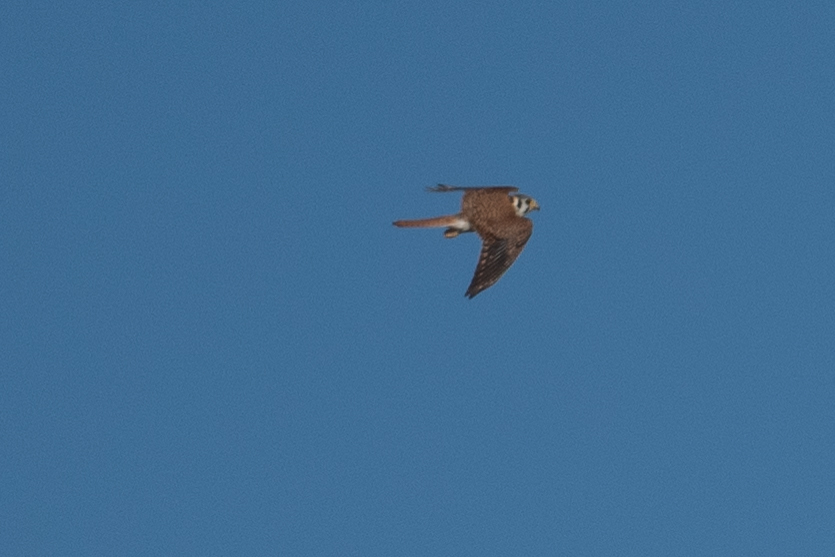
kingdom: Animalia
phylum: Chordata
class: Aves
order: Falconiformes
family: Falconidae
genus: Falco
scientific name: Falco sparverius
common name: American kestrel
